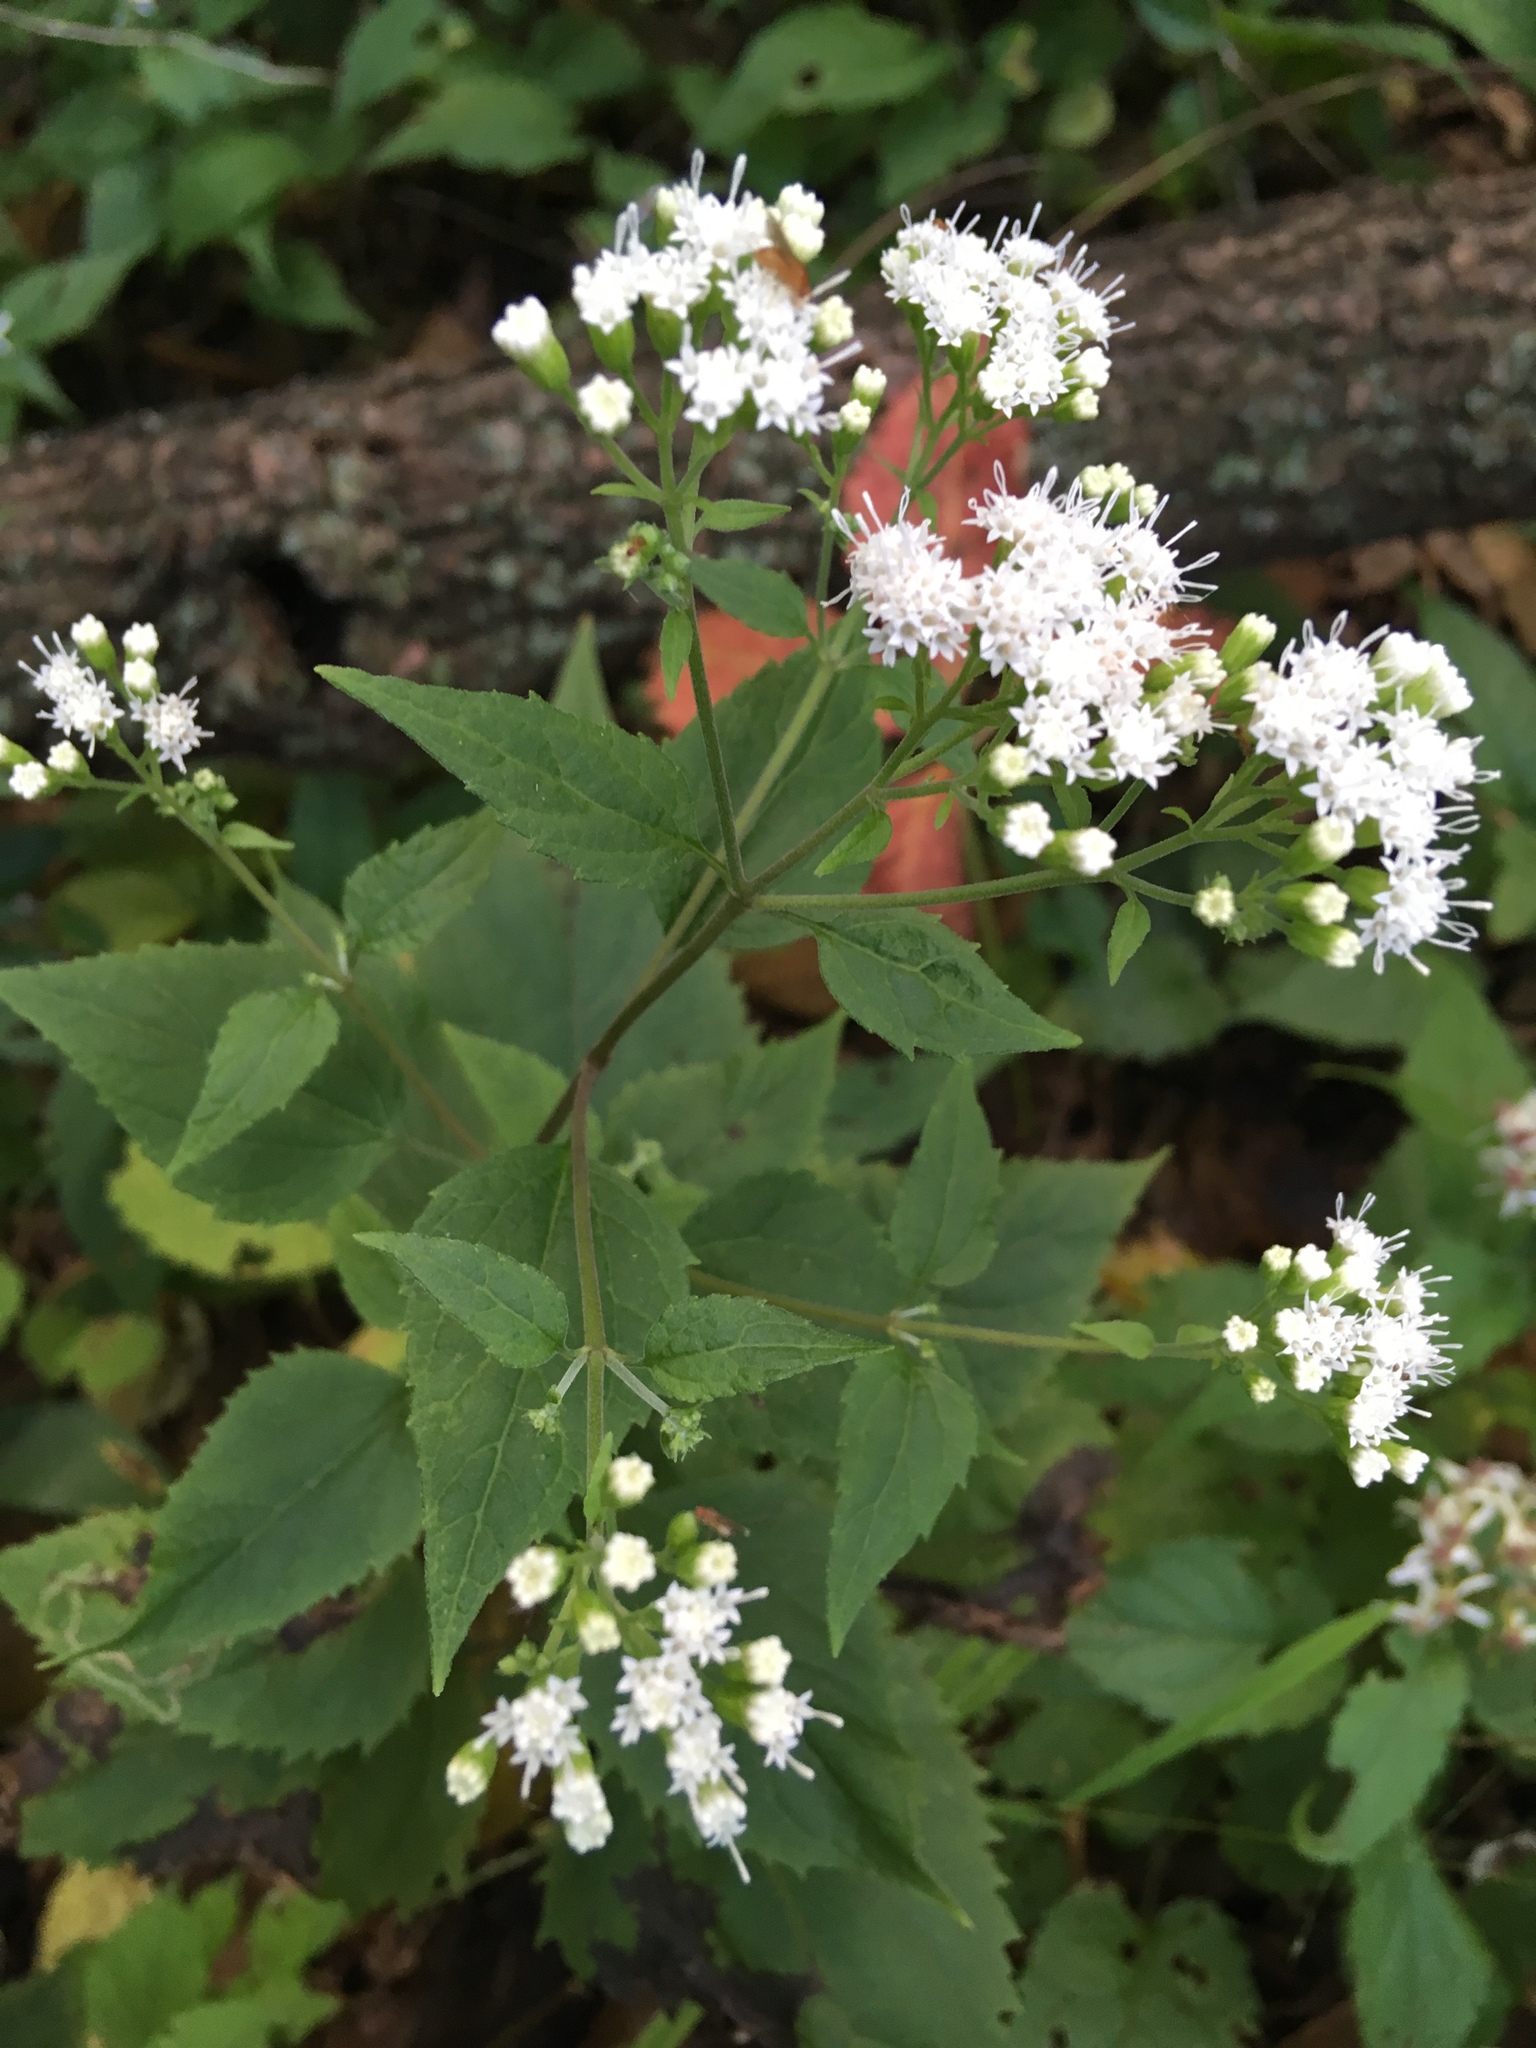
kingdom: Plantae
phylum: Tracheophyta
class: Magnoliopsida
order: Asterales
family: Asteraceae
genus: Ageratina
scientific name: Ageratina altissima
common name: White snakeroot
